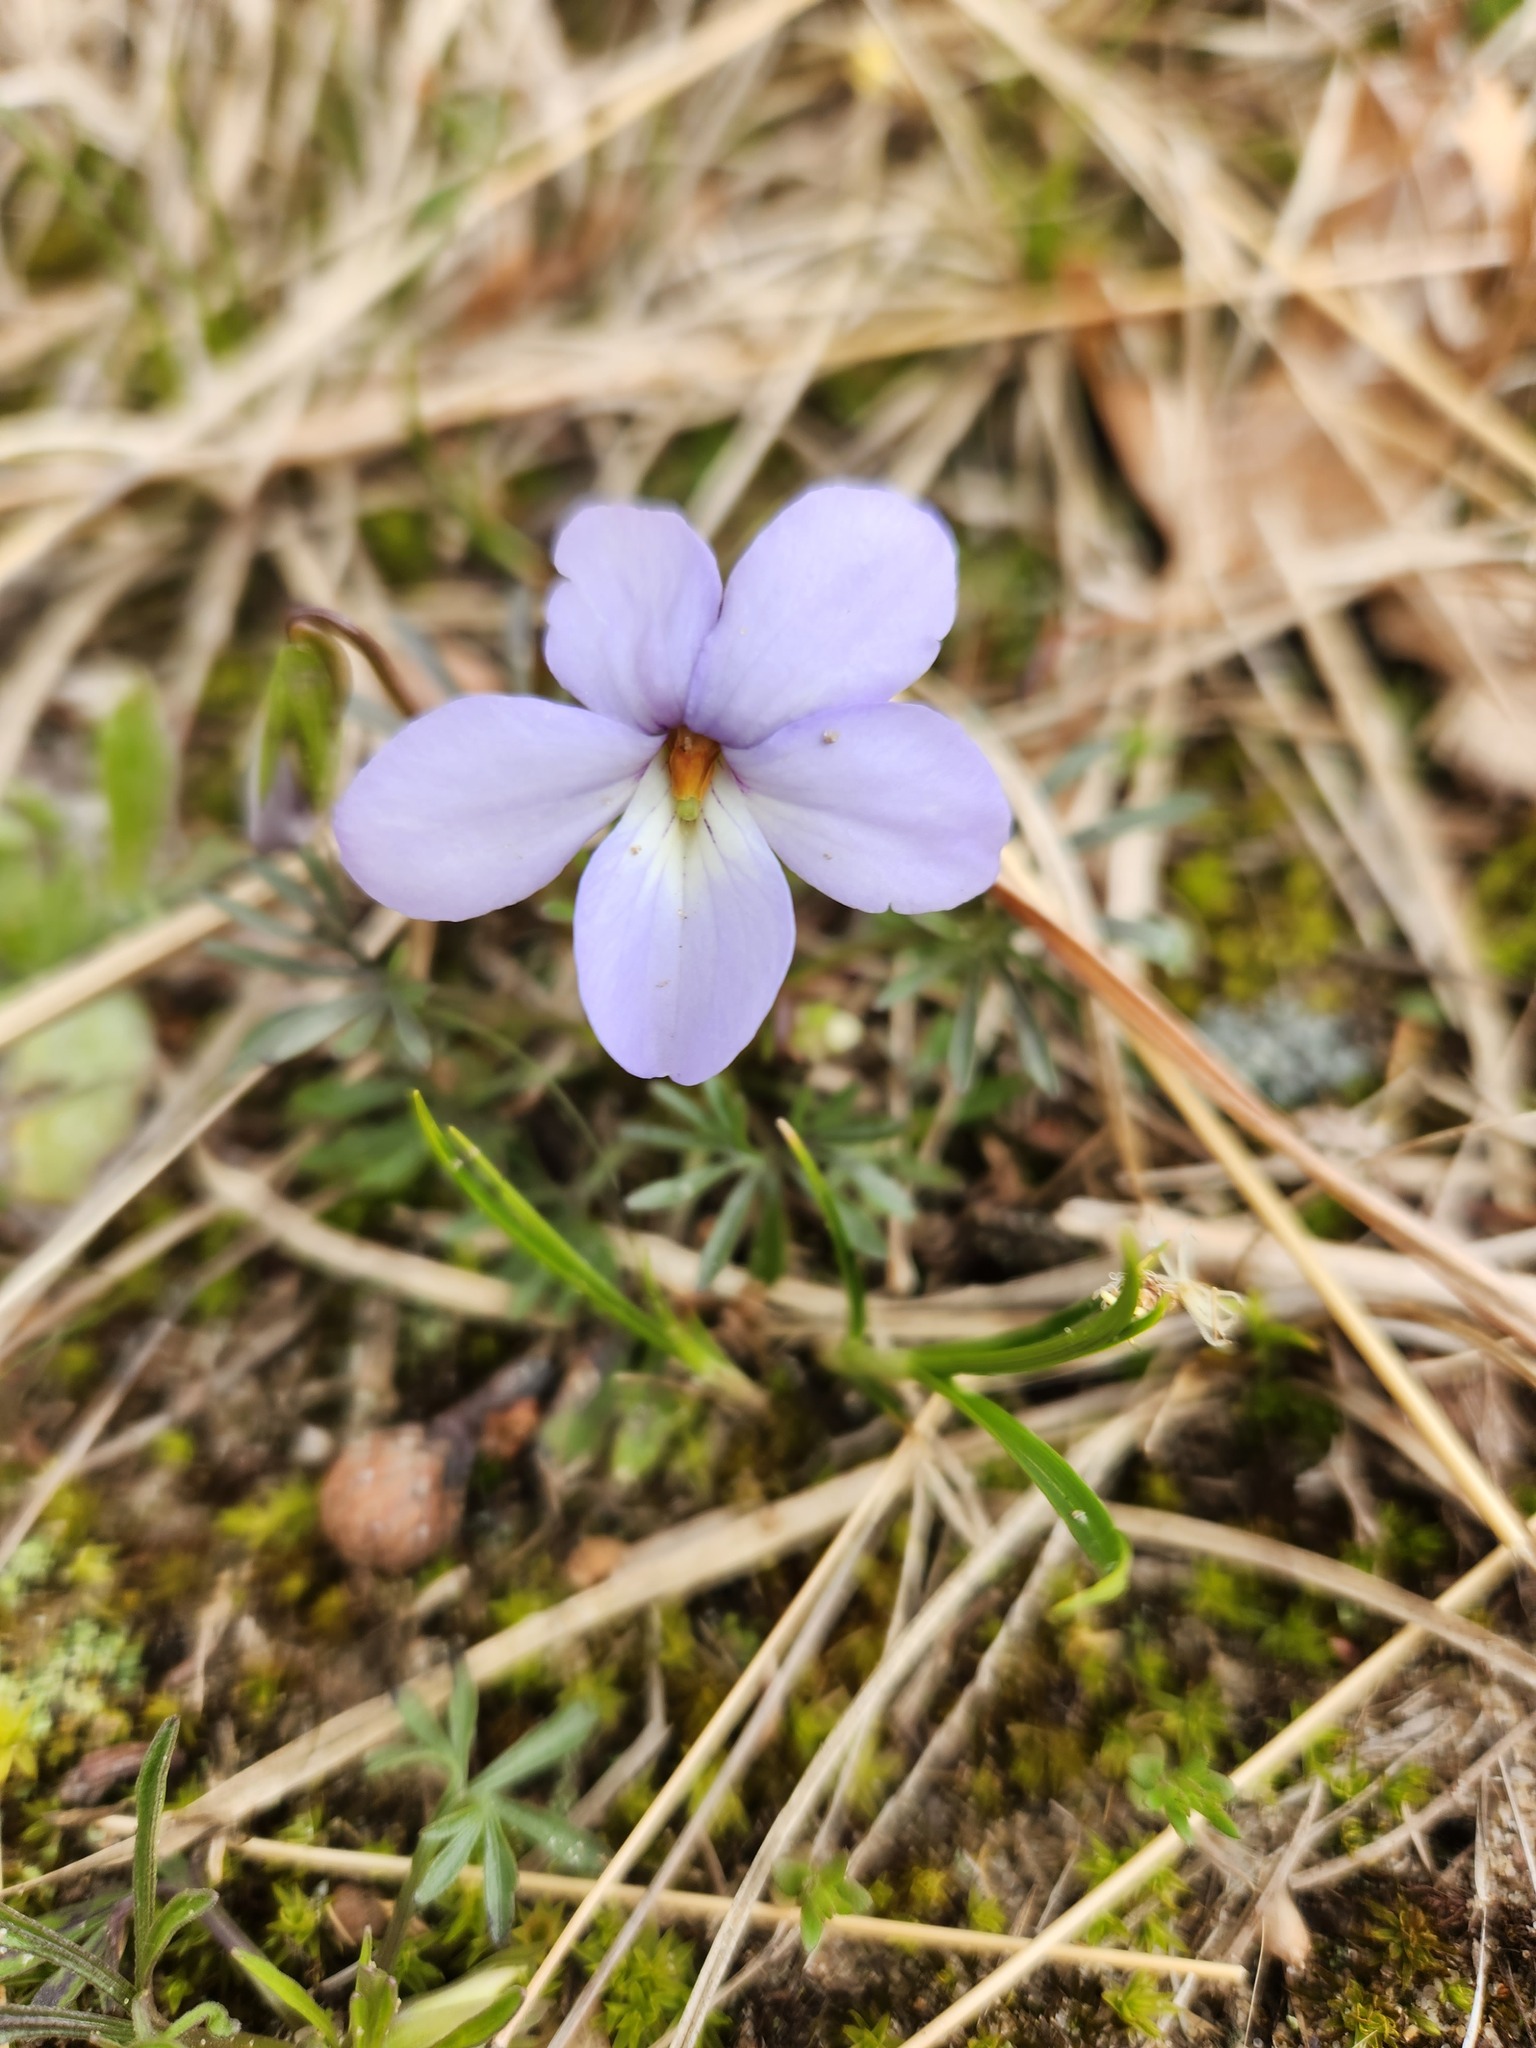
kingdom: Plantae
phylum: Tracheophyta
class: Magnoliopsida
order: Malpighiales
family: Violaceae
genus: Viola
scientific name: Viola pedata
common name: Pansy violet
